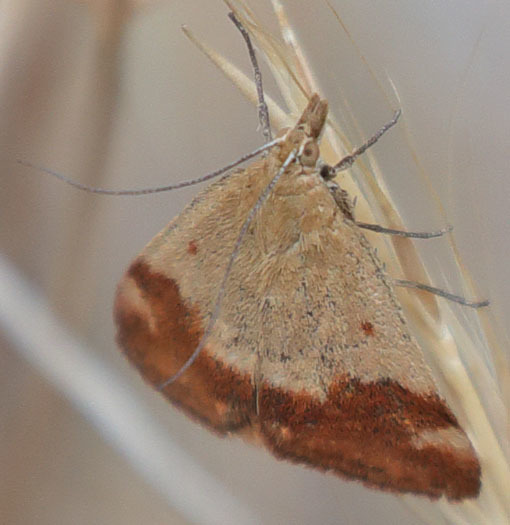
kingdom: Animalia
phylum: Arthropoda
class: Insecta
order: Lepidoptera
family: Crambidae
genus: Pyrausta
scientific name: Pyrausta semirubralis
